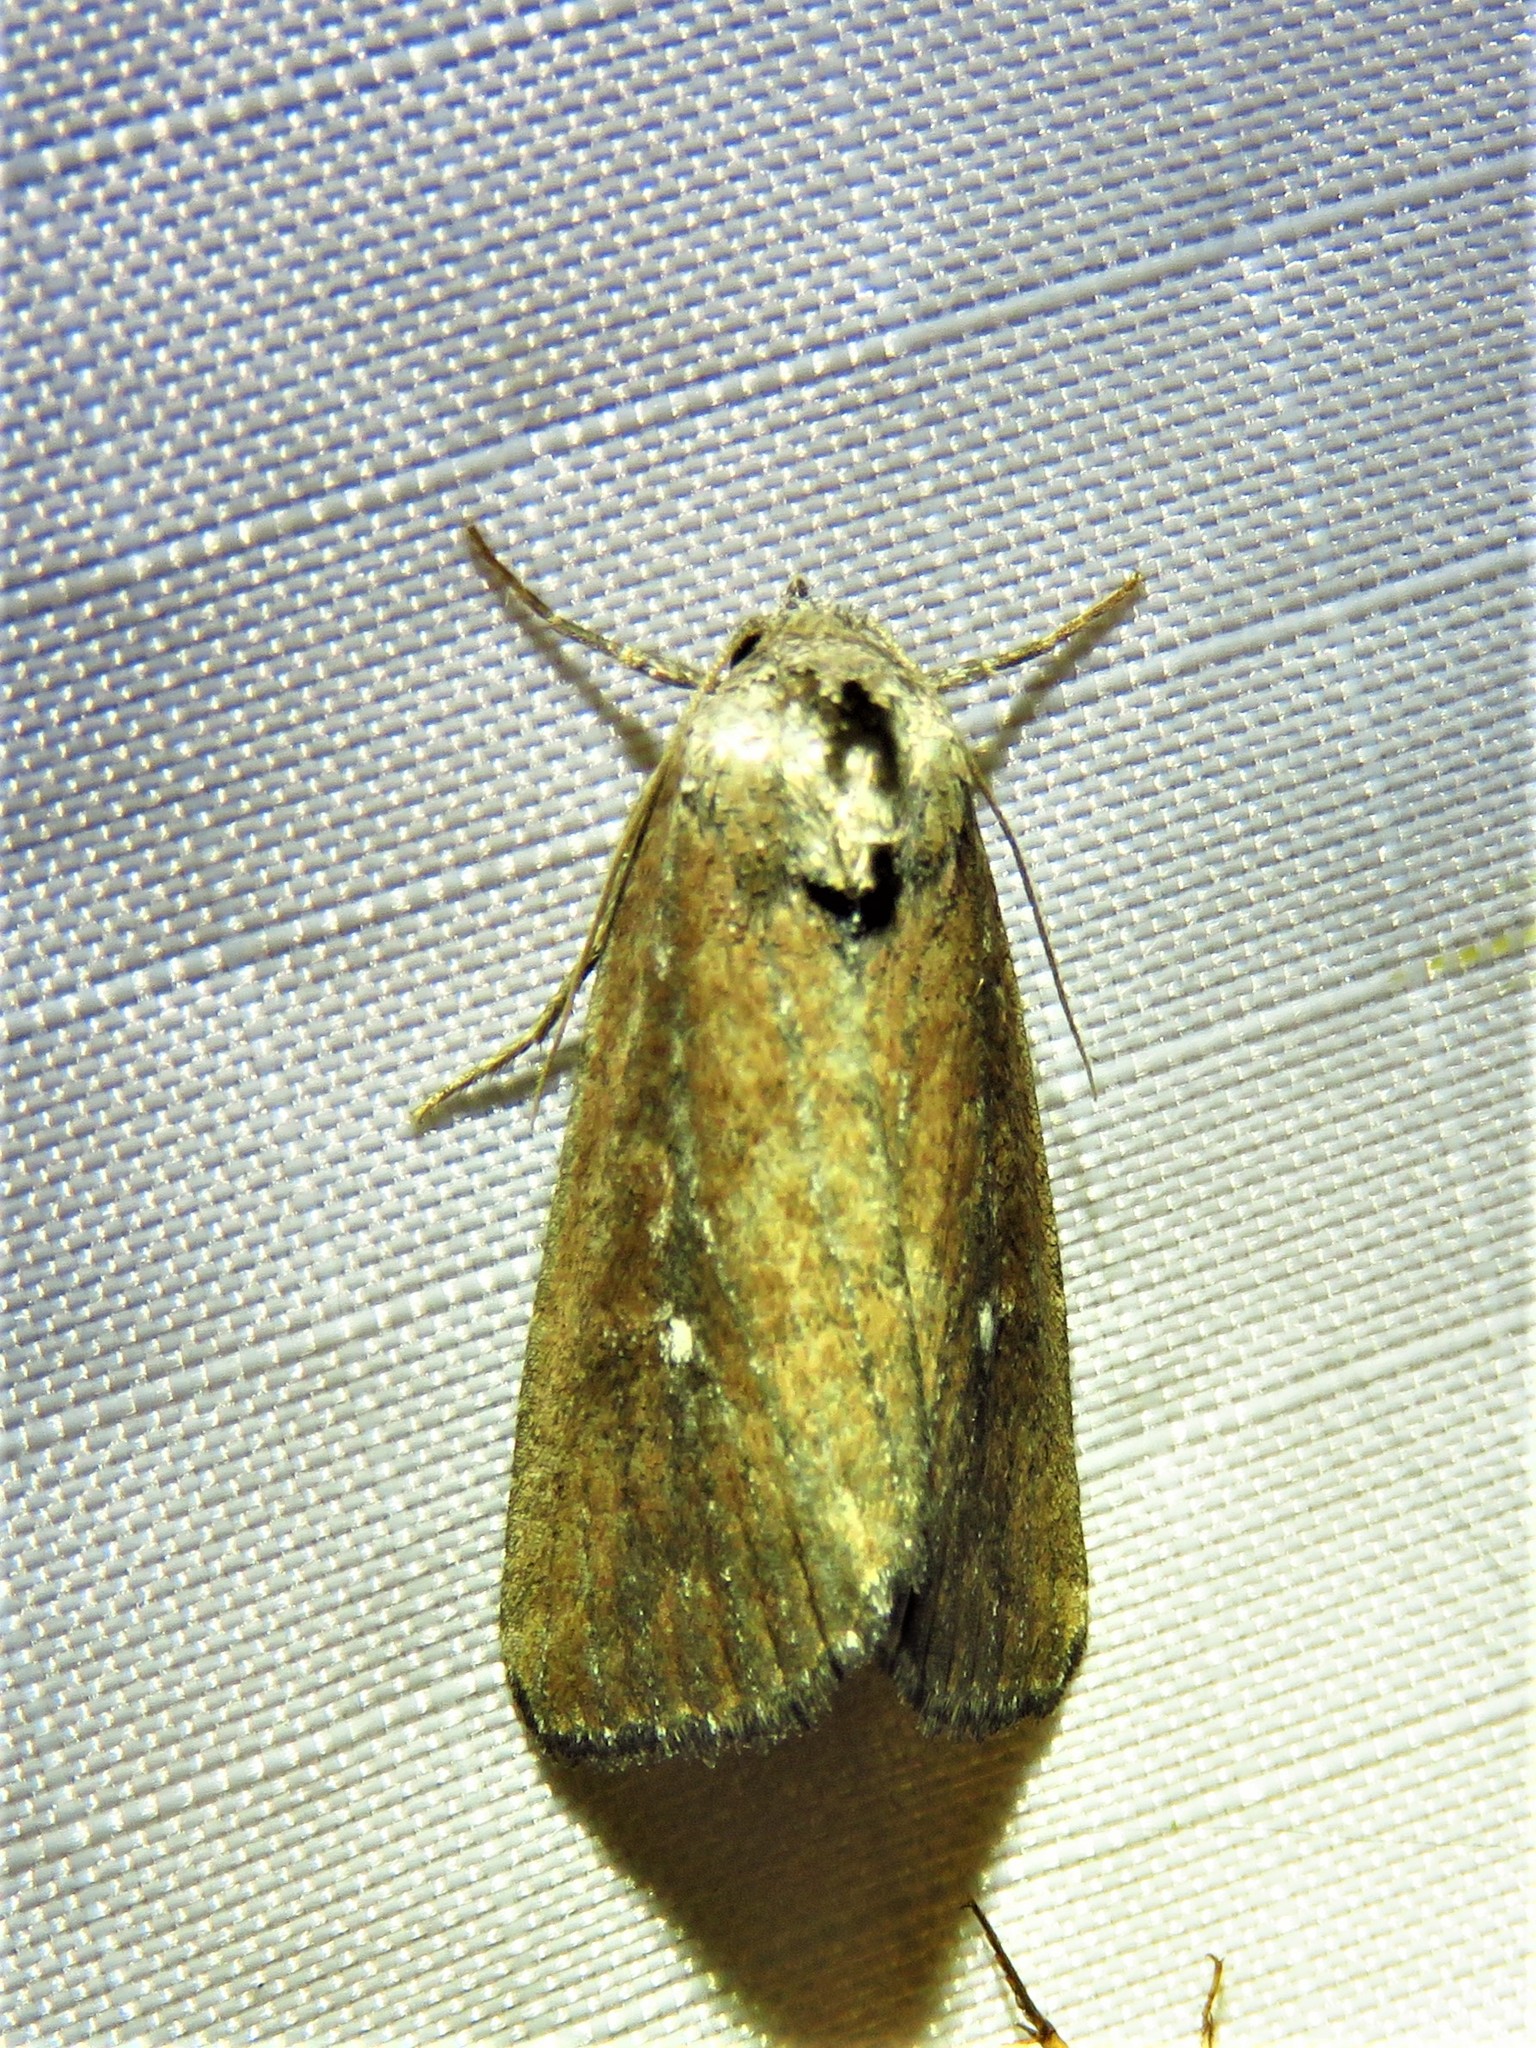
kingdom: Animalia
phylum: Arthropoda
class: Insecta
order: Lepidoptera
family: Noctuidae
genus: Condica
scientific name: Condica videns
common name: White-dotted groundling
